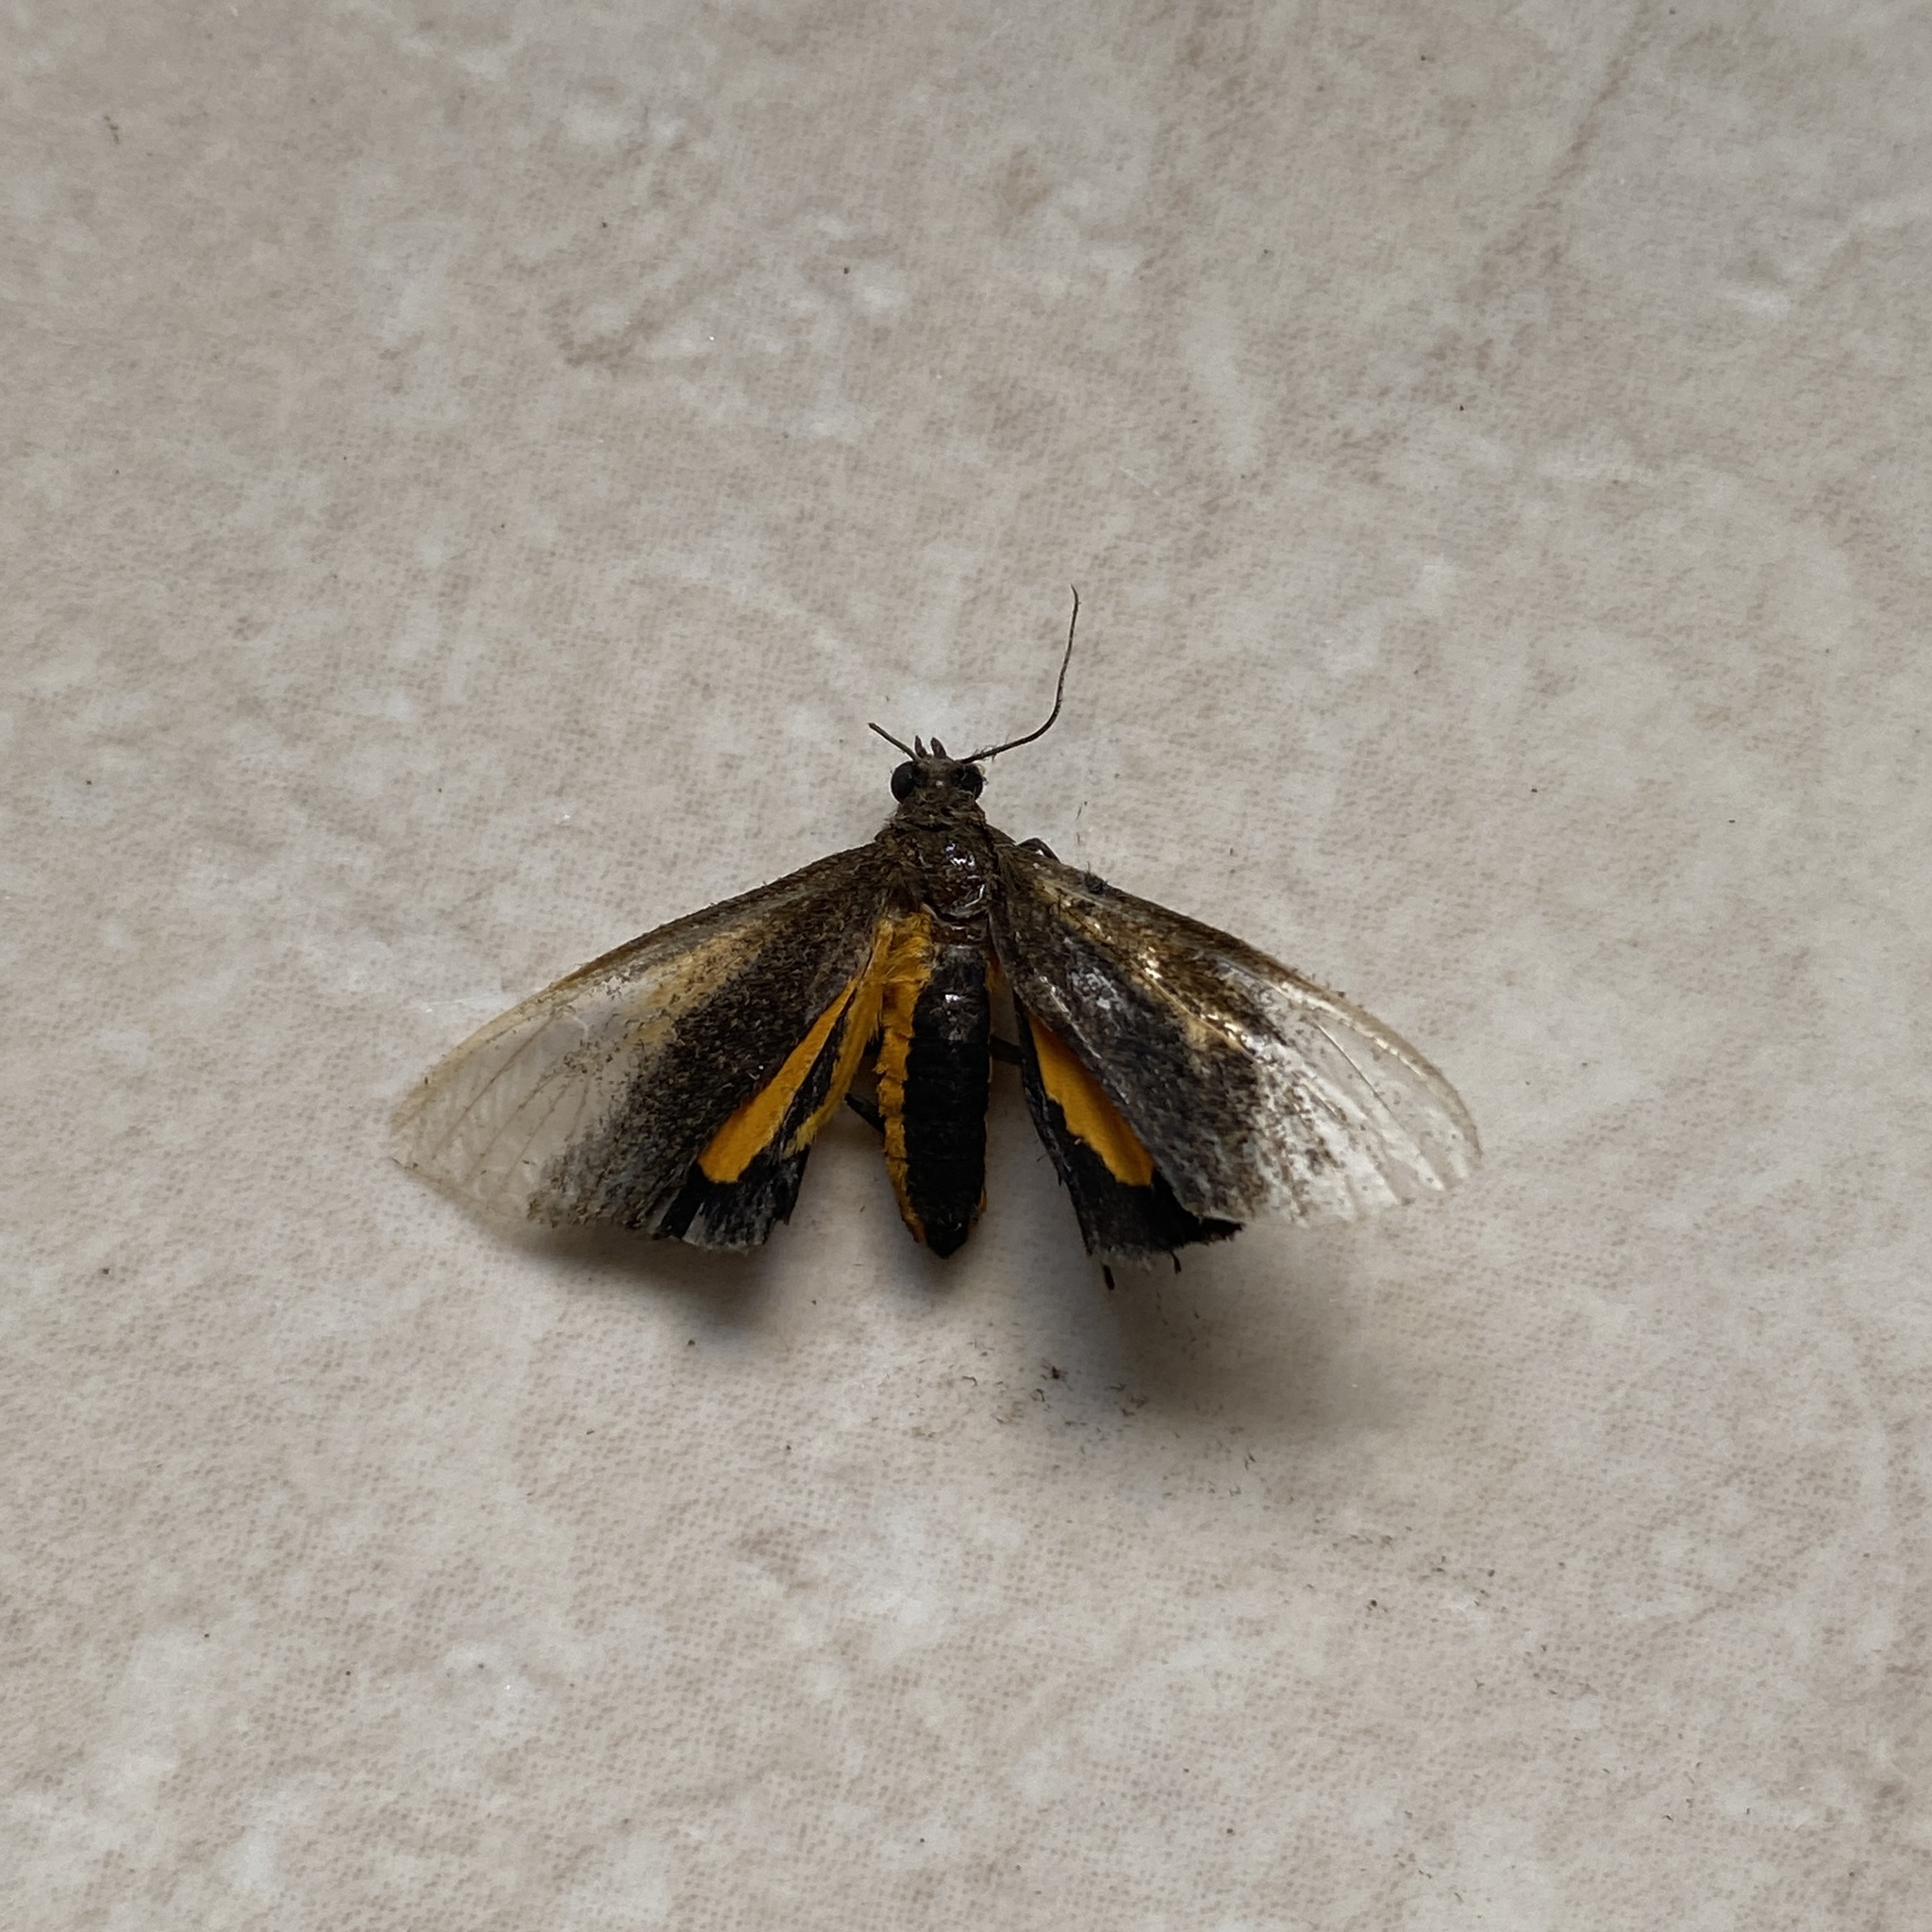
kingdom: Animalia
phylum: Arthropoda
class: Insecta
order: Lepidoptera
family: Erebidae
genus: Virbia
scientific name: Virbia medarda
